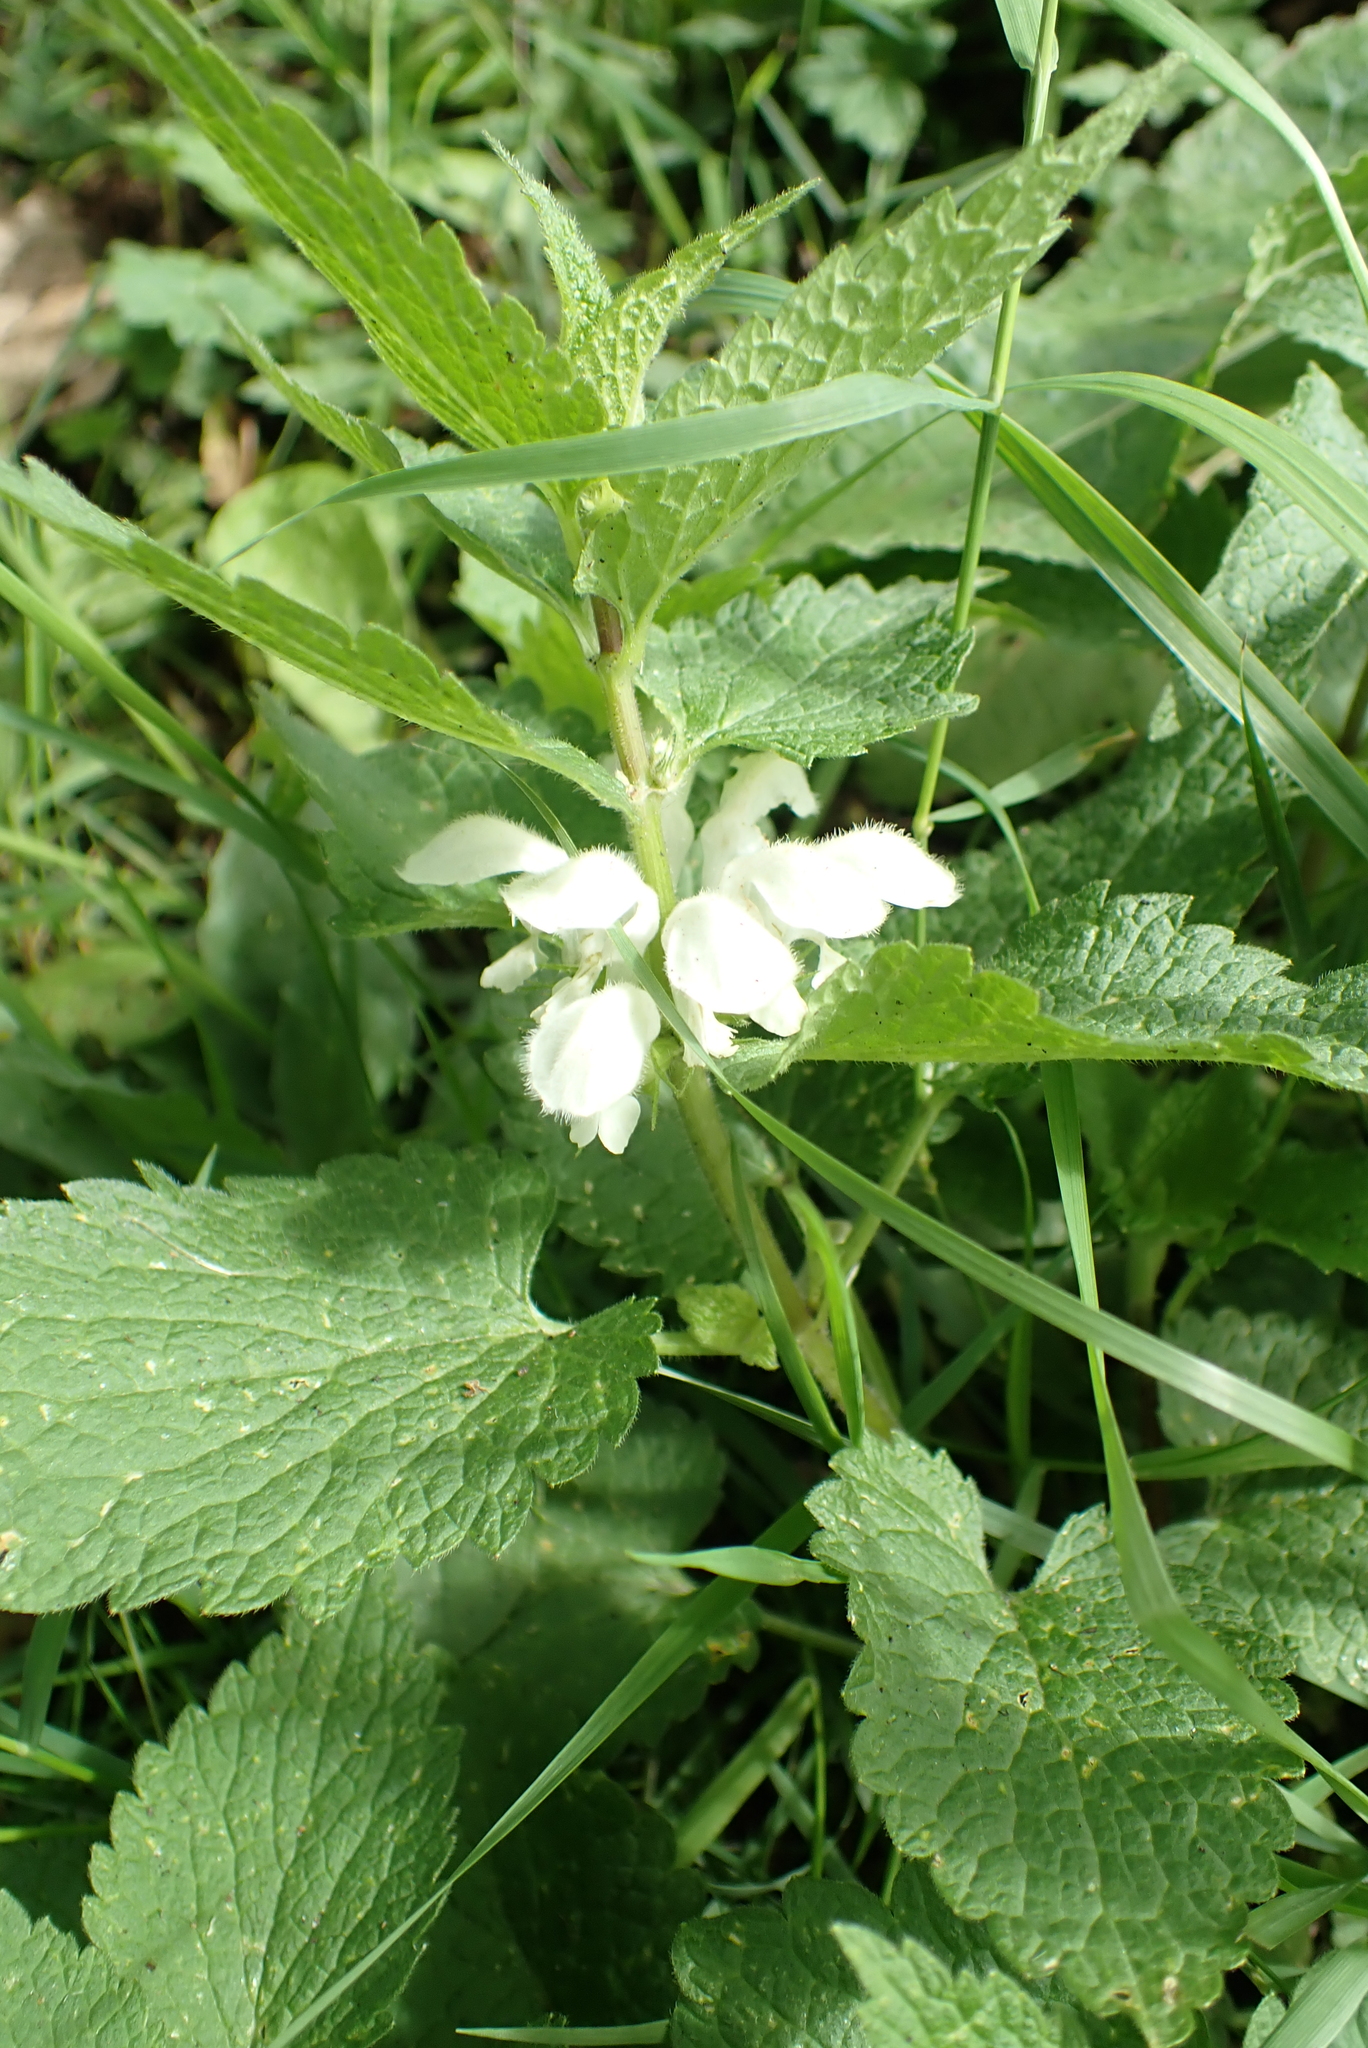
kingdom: Plantae
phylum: Tracheophyta
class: Magnoliopsida
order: Lamiales
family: Lamiaceae
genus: Lamium
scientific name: Lamium album
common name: White dead-nettle
